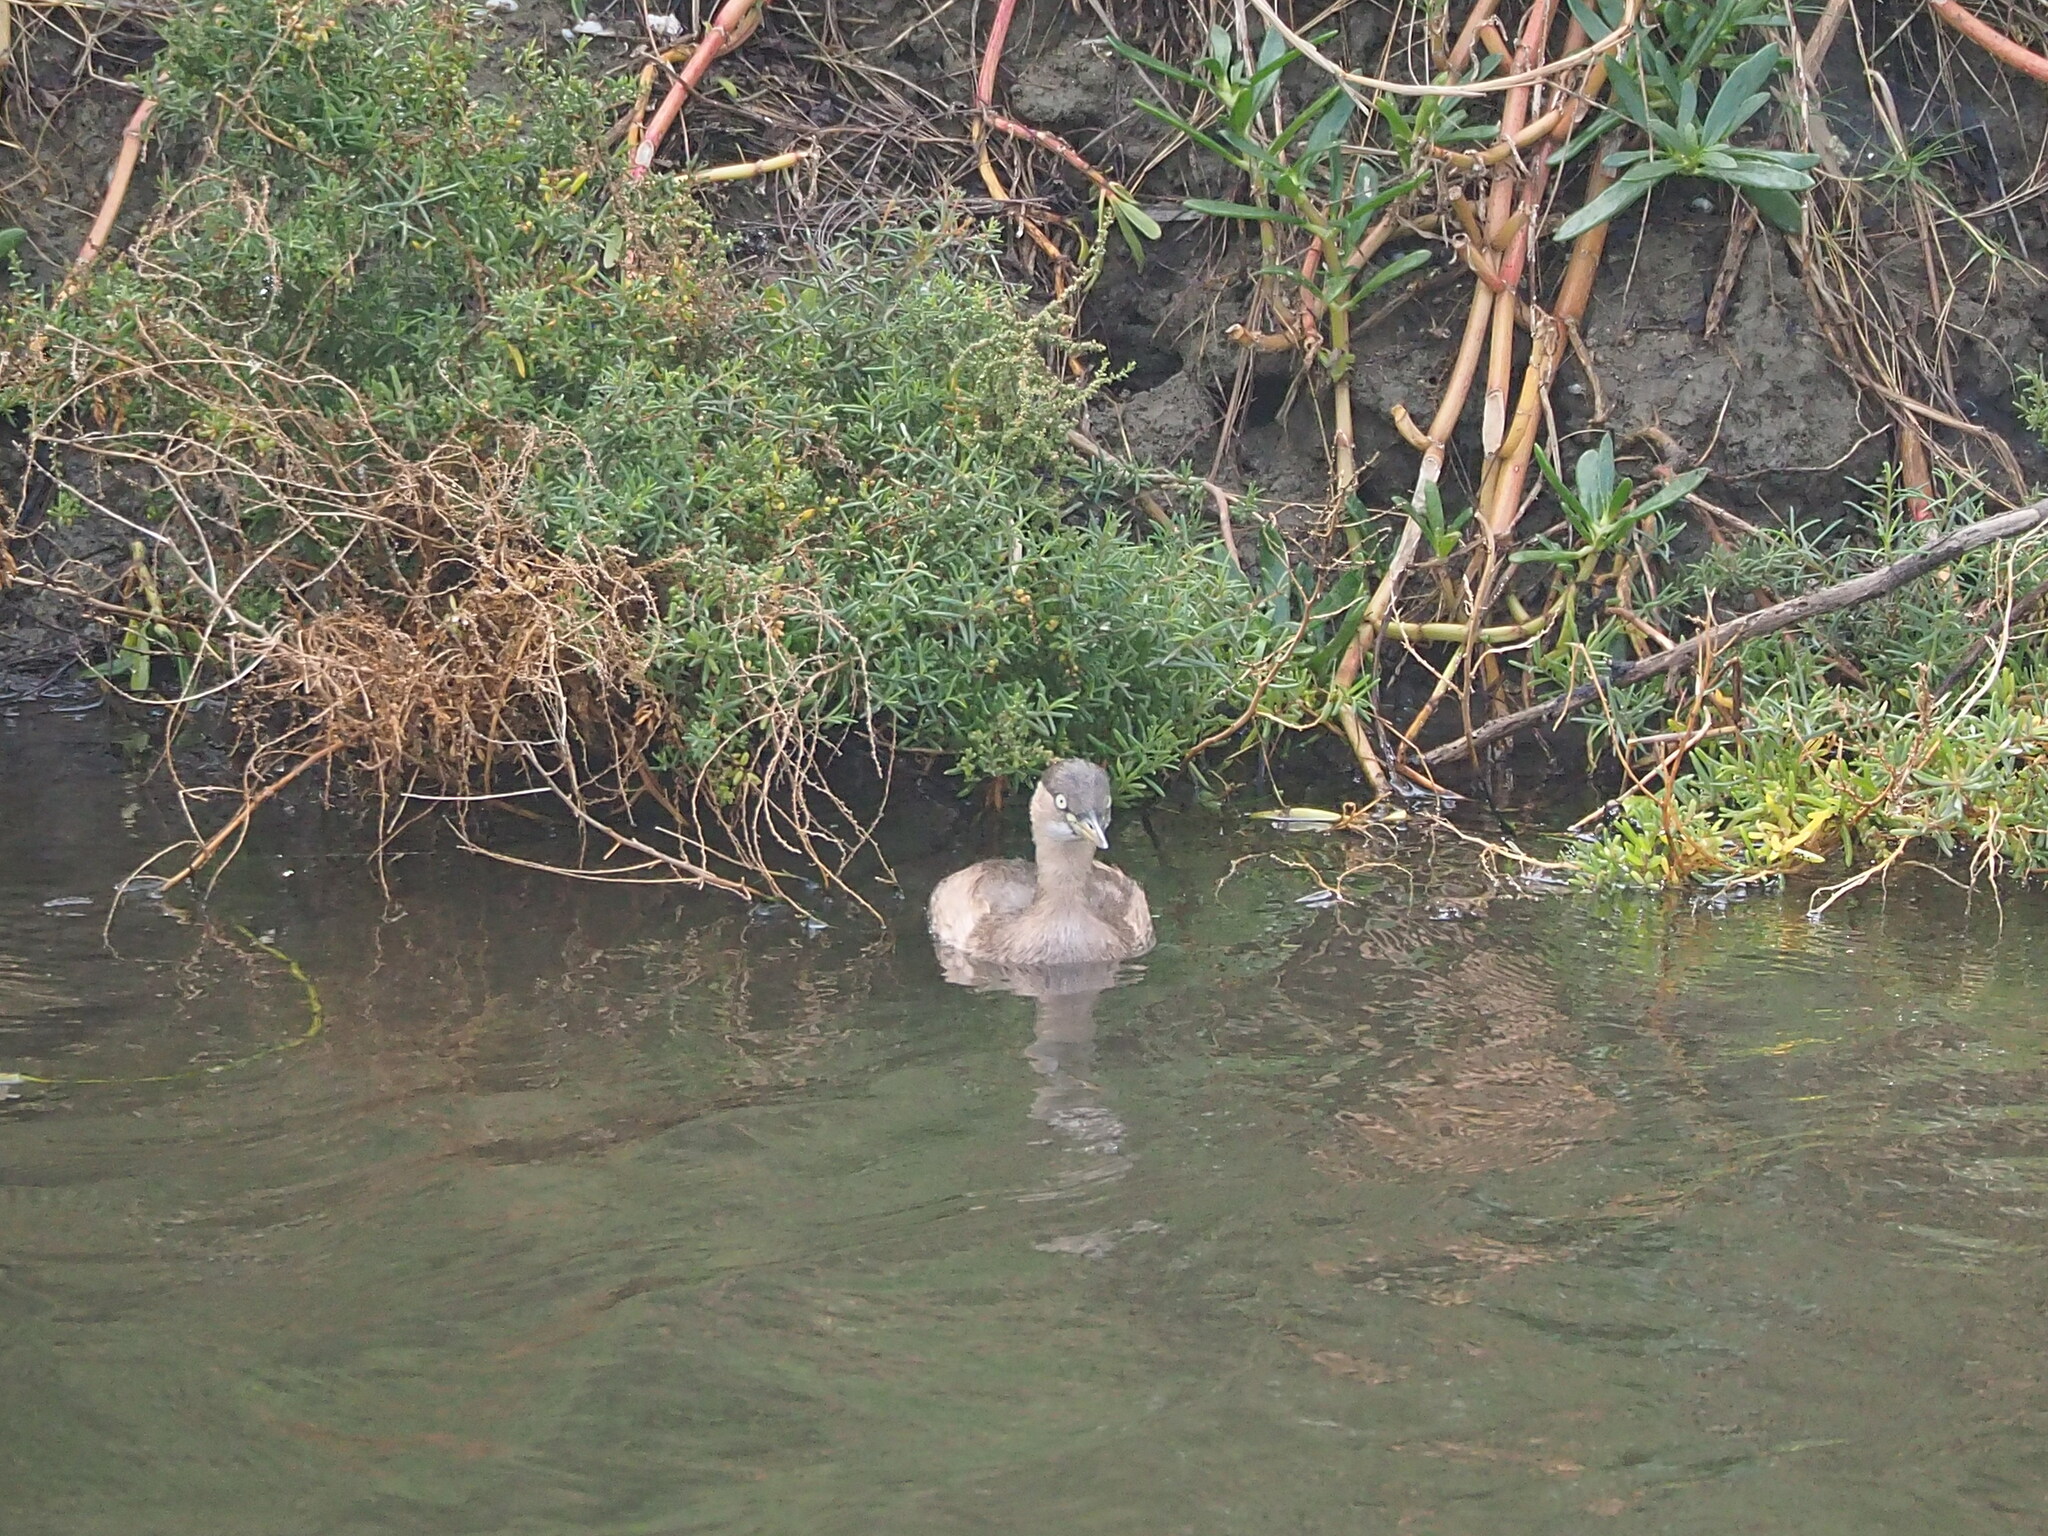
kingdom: Animalia
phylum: Chordata
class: Aves
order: Podicipediformes
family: Podicipedidae
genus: Tachybaptus
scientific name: Tachybaptus ruficollis
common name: Little grebe
